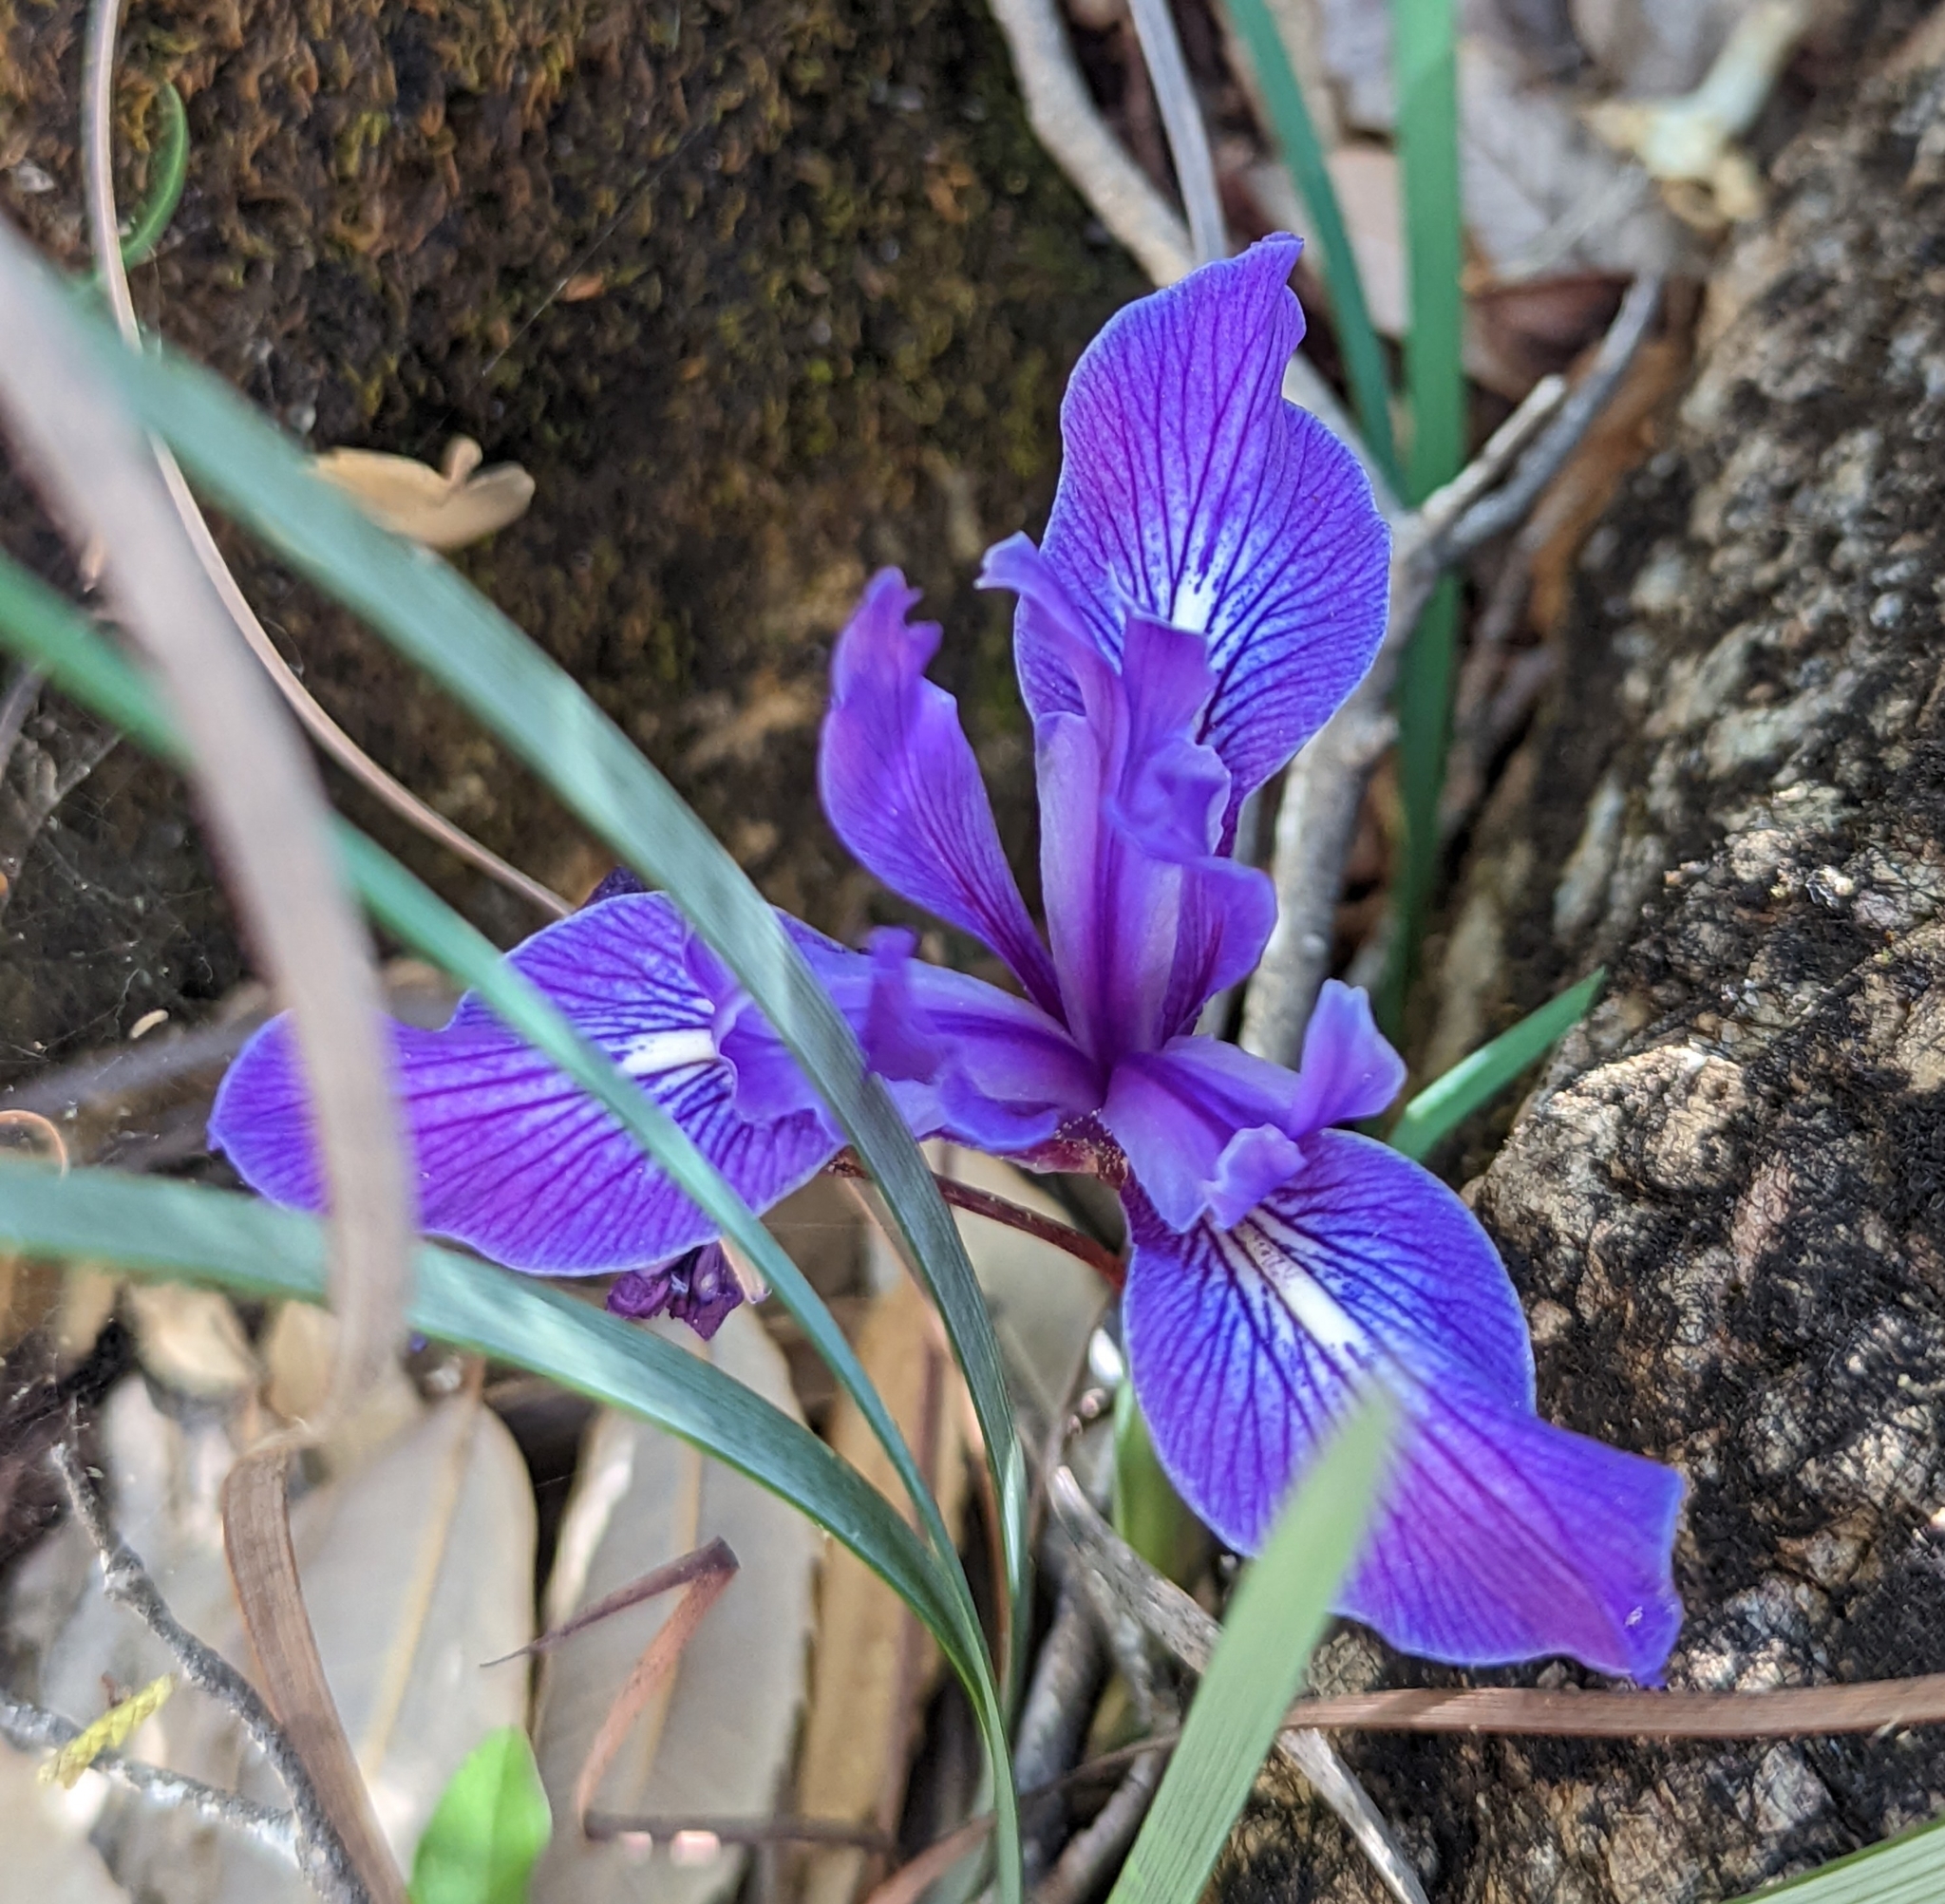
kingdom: Plantae
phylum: Tracheophyta
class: Liliopsida
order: Asparagales
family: Iridaceae
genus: Iris
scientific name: Iris macrosiphon
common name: Ground iris
